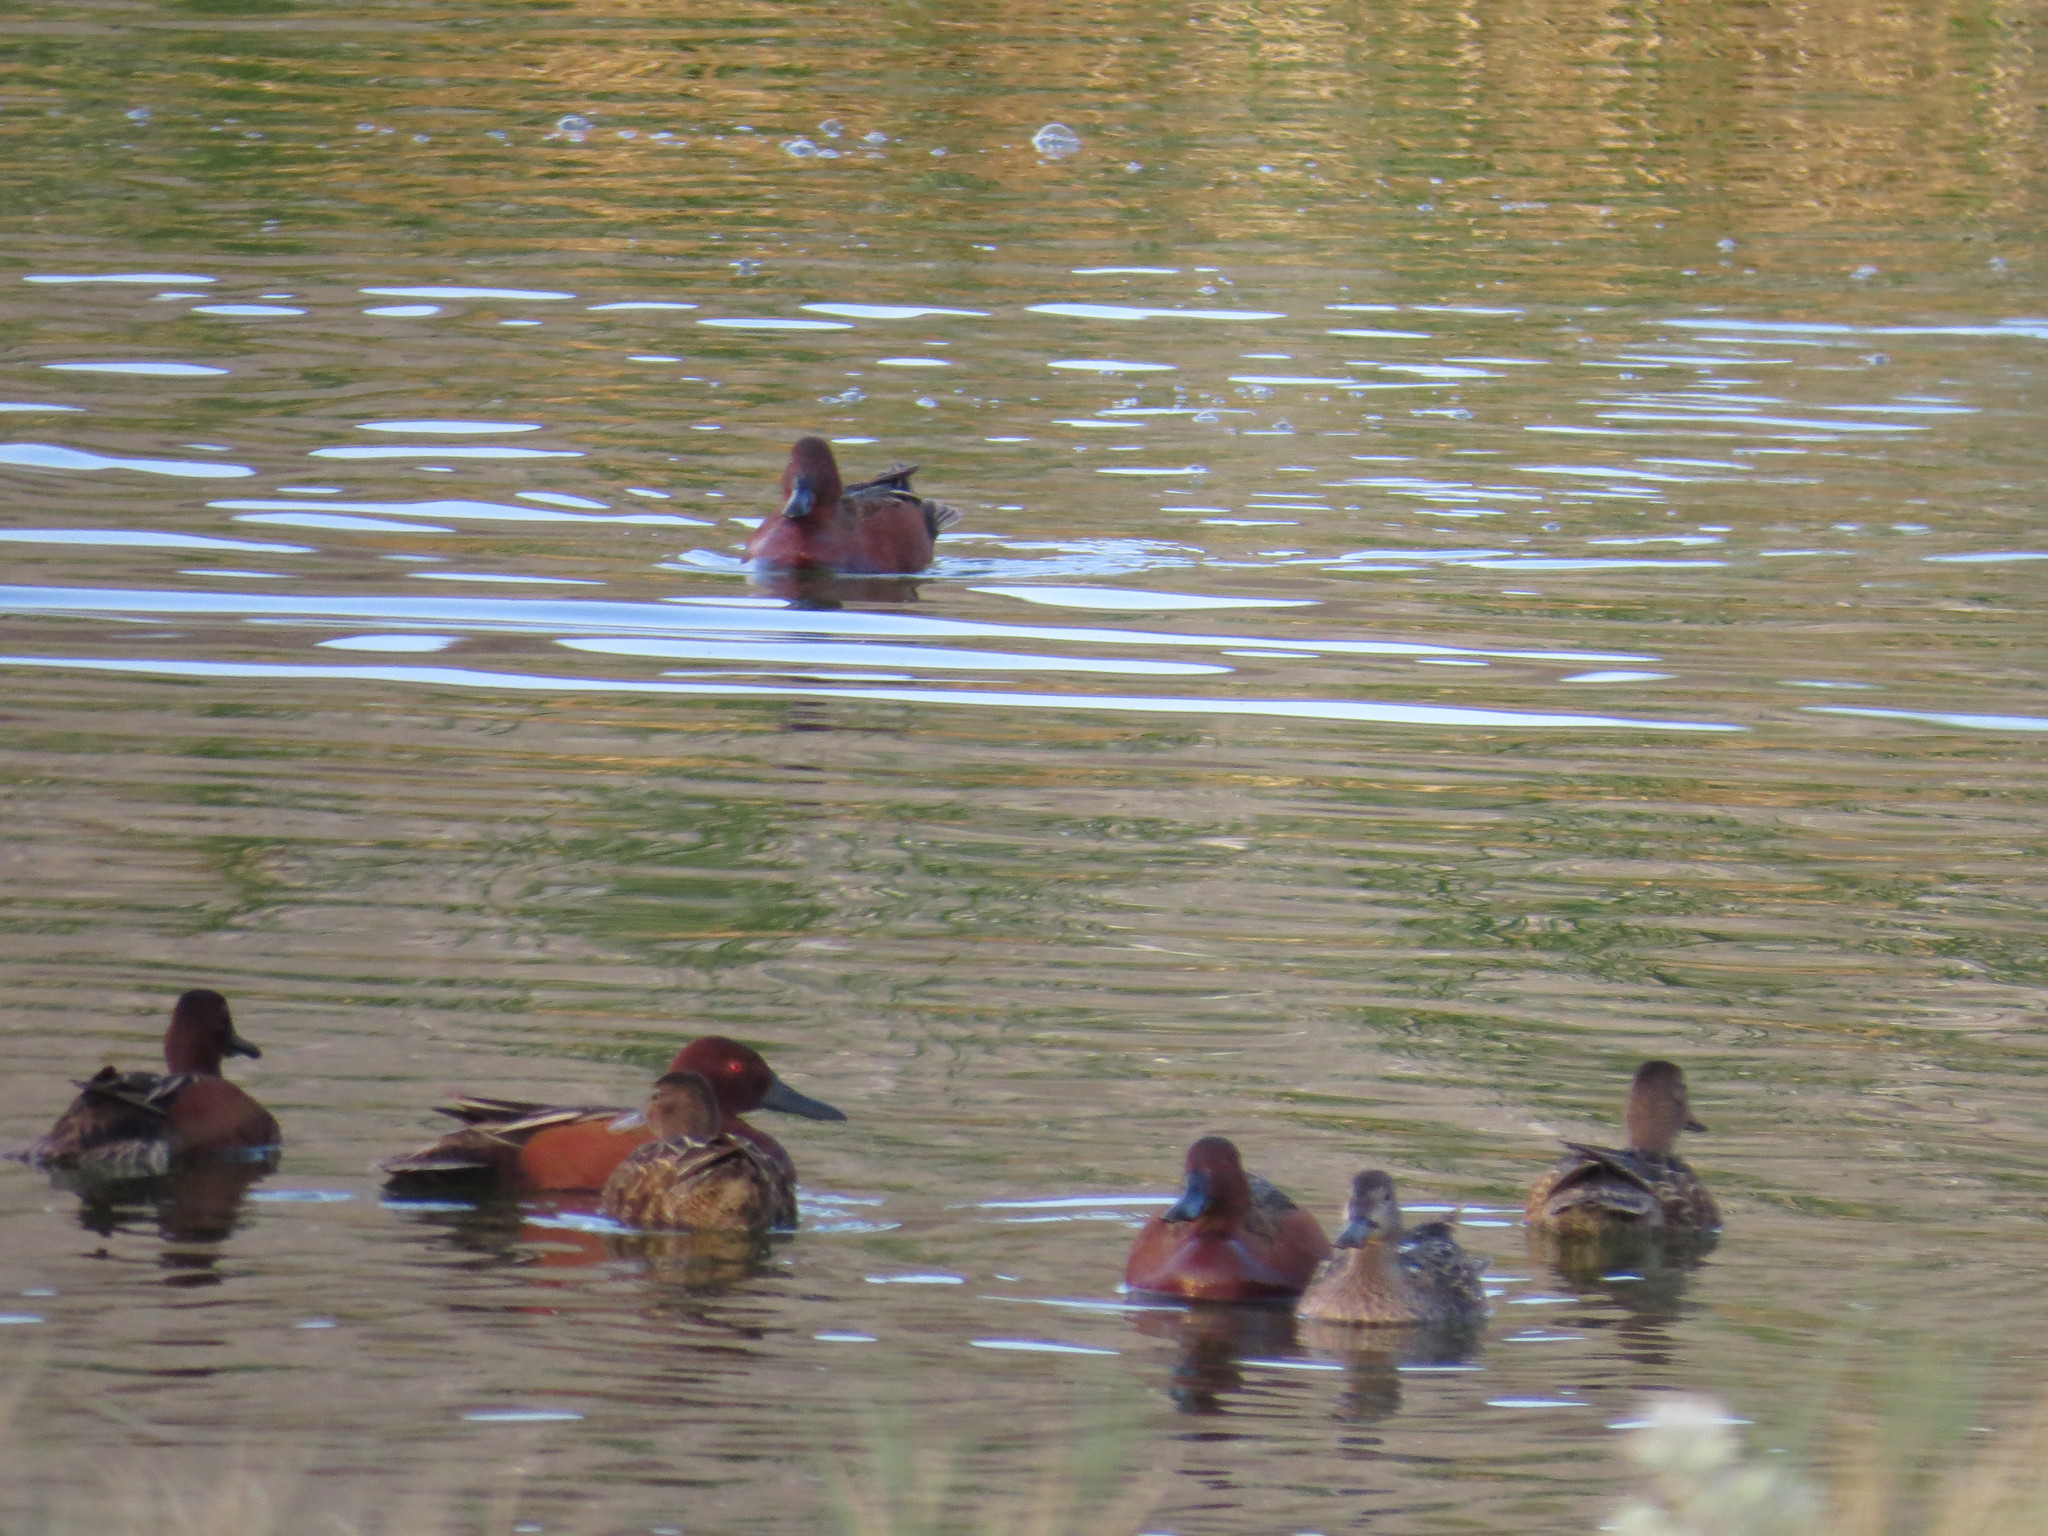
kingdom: Animalia
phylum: Chordata
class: Aves
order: Anseriformes
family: Anatidae
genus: Spatula
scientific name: Spatula cyanoptera
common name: Cinnamon teal
